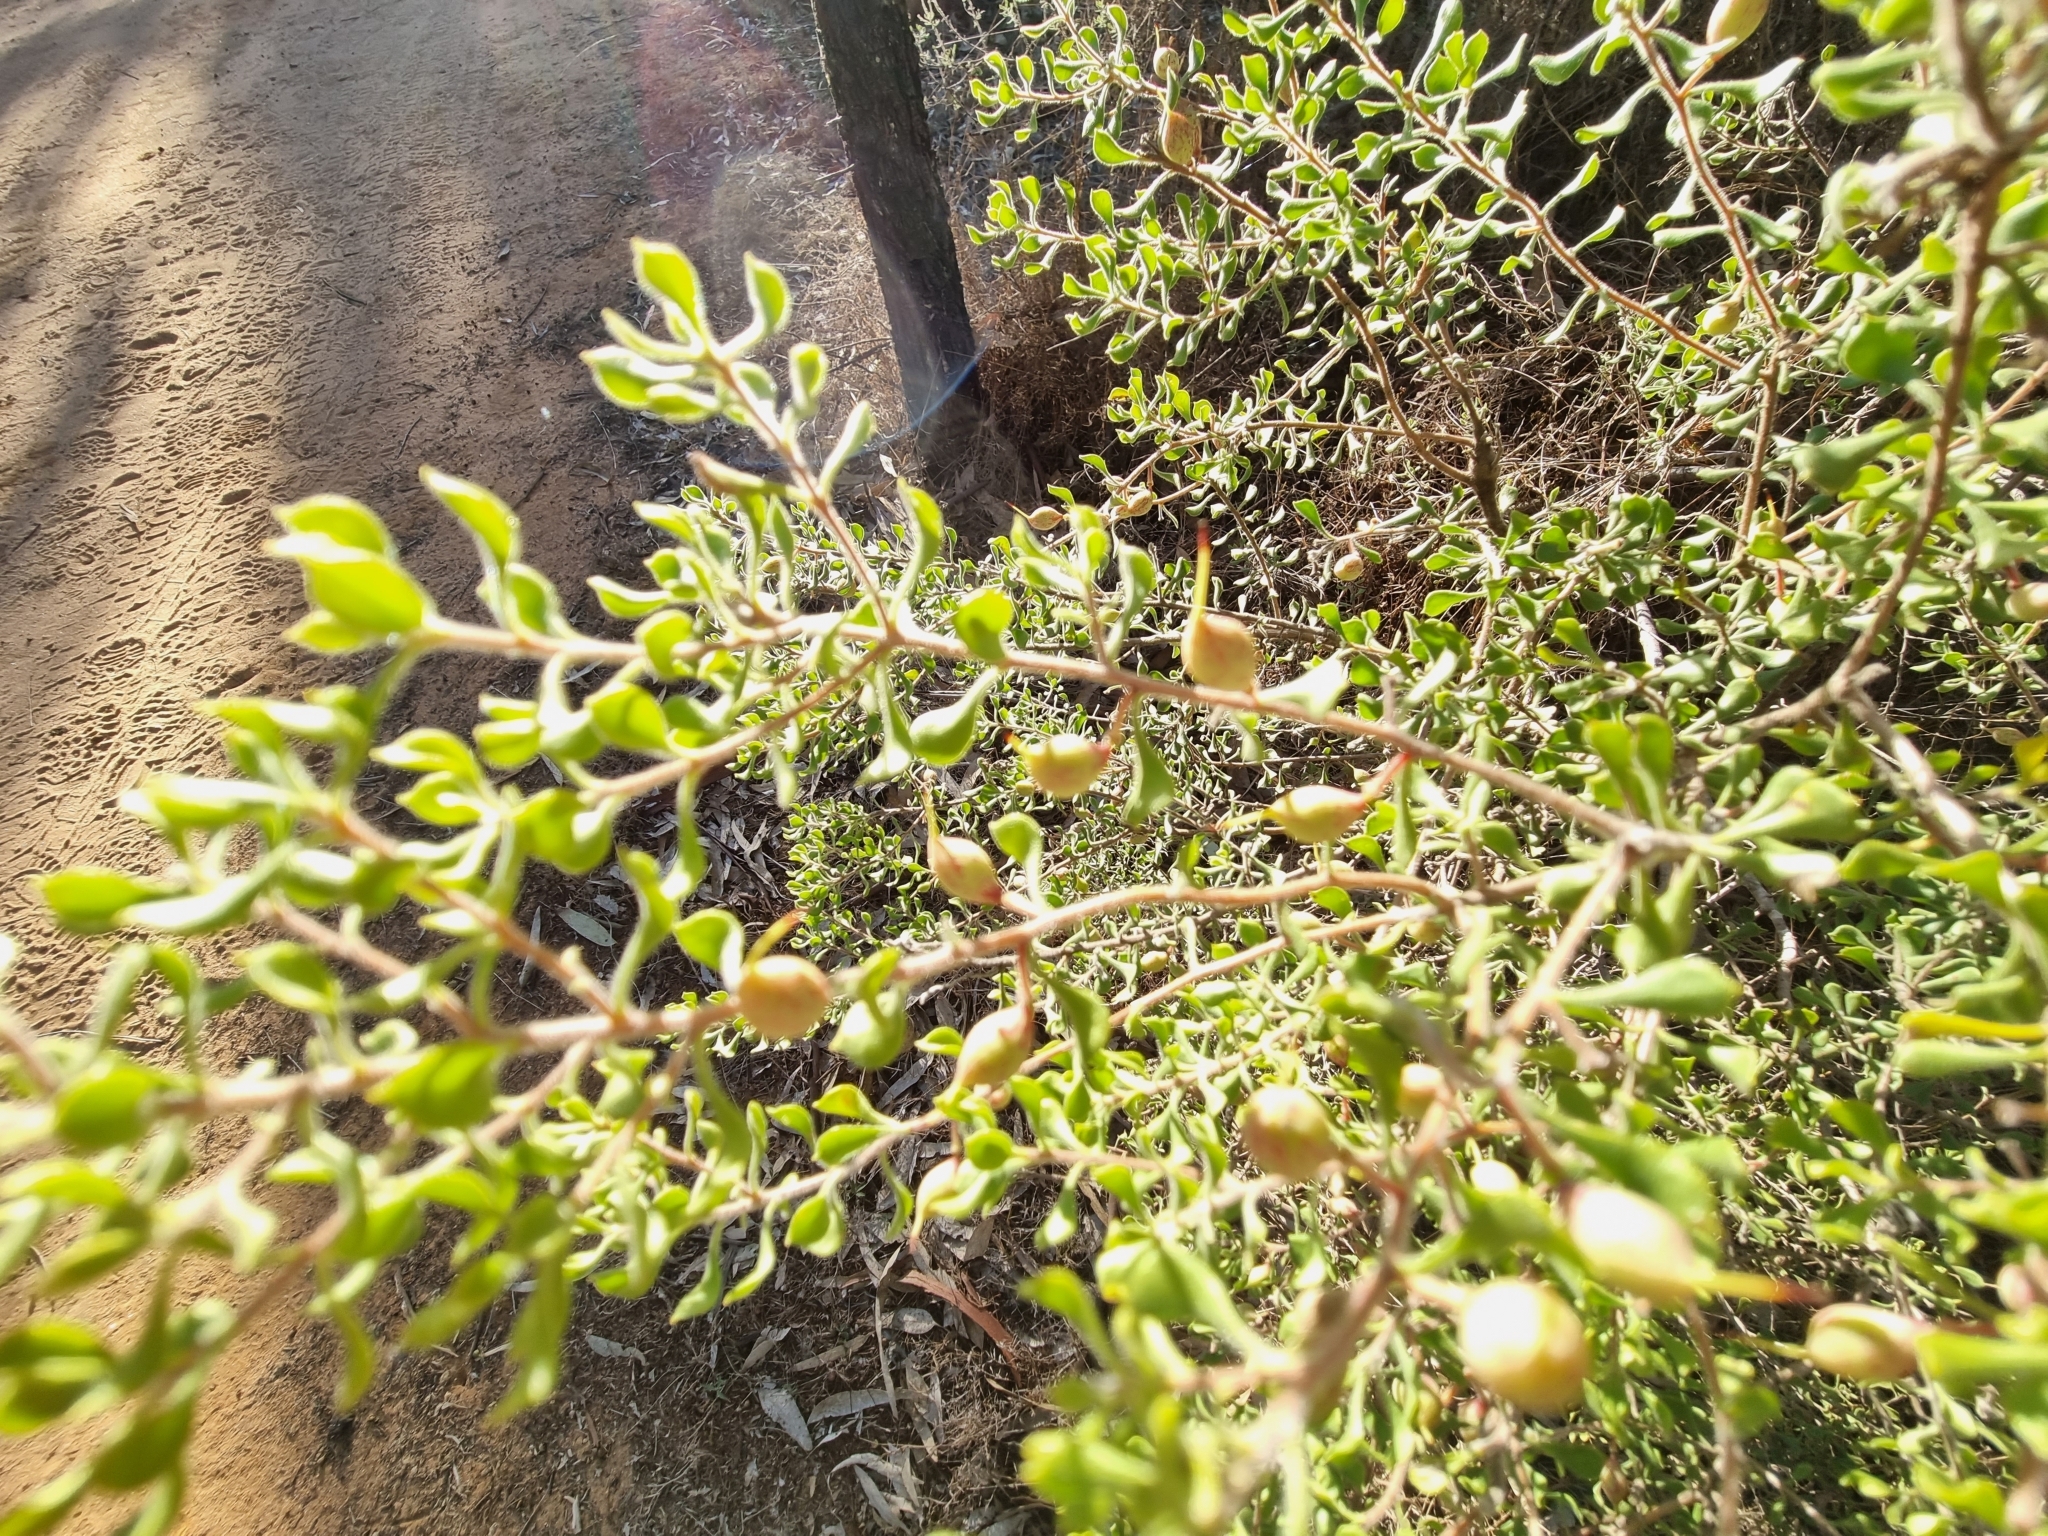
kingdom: Plantae
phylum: Tracheophyta
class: Magnoliopsida
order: Proteales
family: Proteaceae
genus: Persoonia
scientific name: Persoonia cuspidifera
